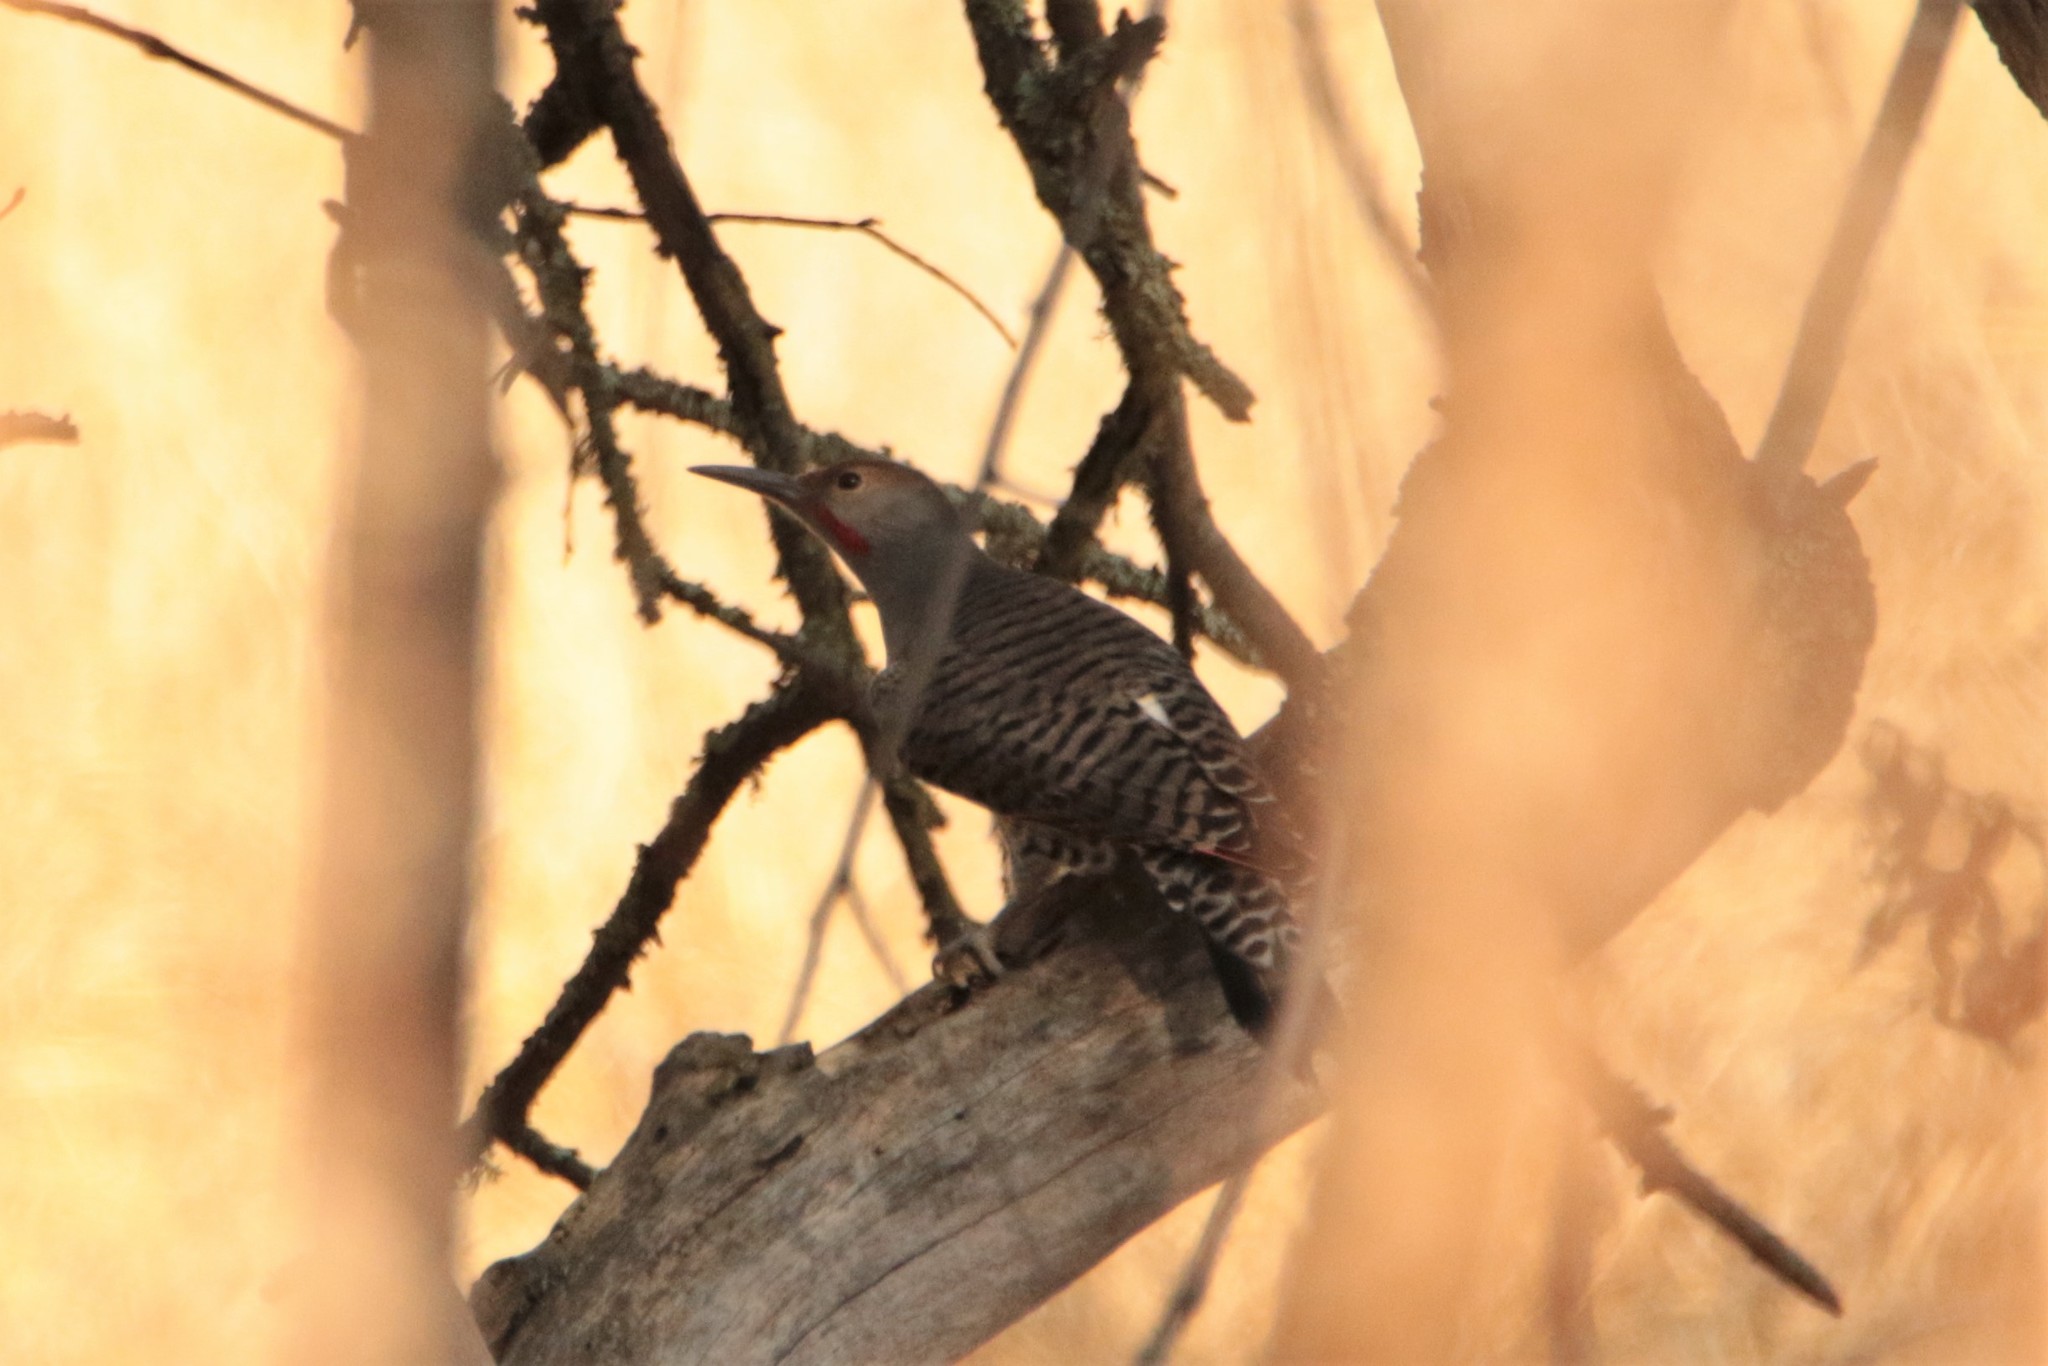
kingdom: Animalia
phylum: Chordata
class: Aves
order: Piciformes
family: Picidae
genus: Colaptes
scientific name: Colaptes auratus
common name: Northern flicker
